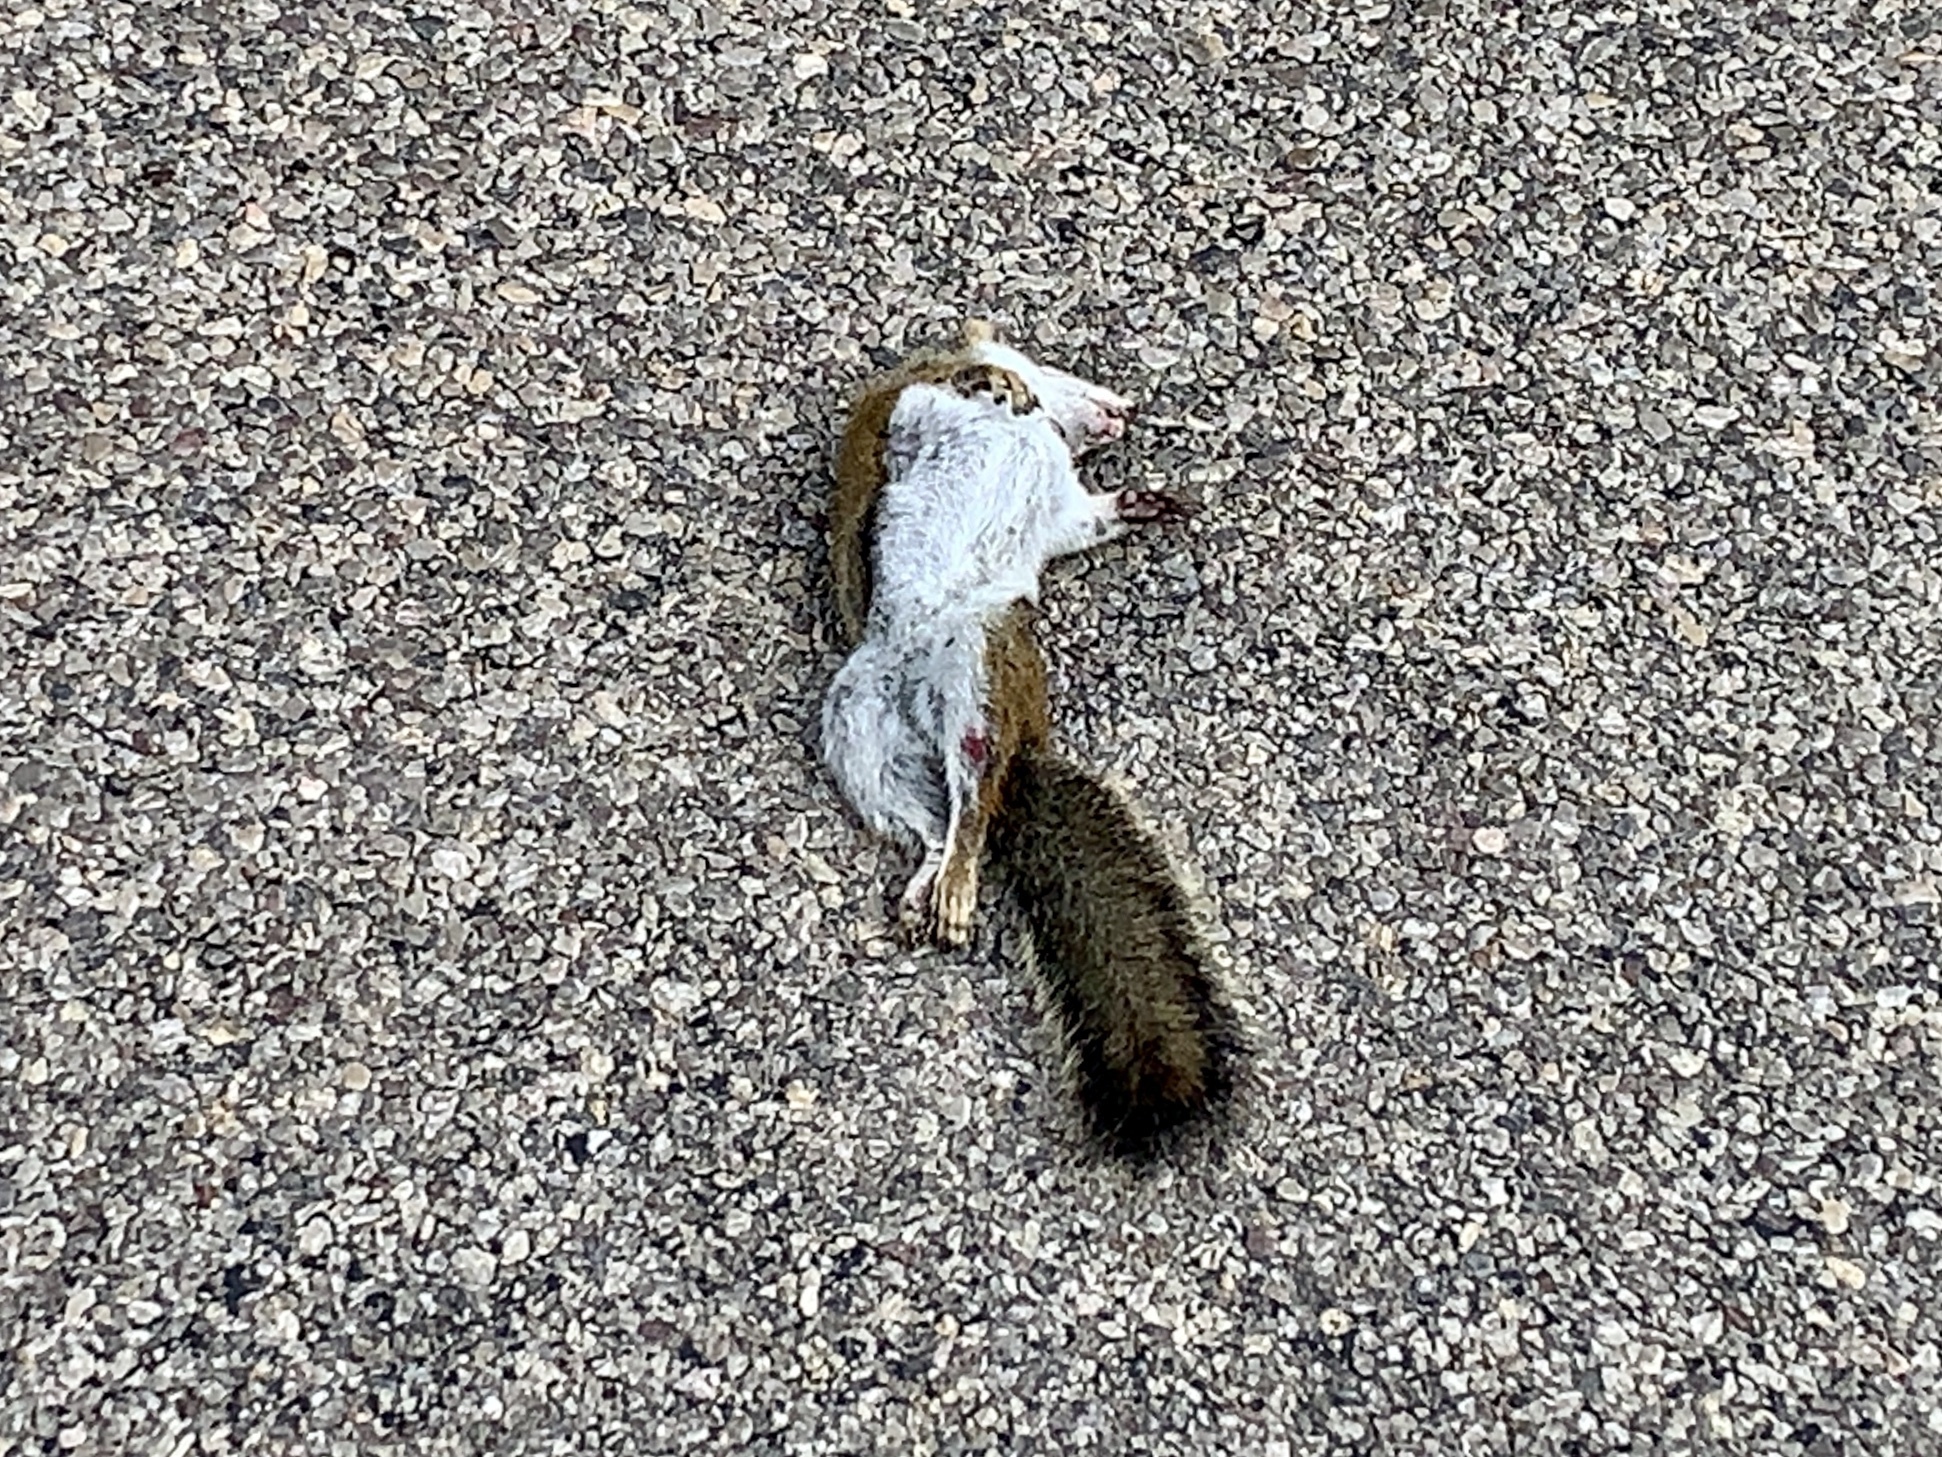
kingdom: Animalia
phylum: Chordata
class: Mammalia
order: Rodentia
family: Sciuridae
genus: Tamiasciurus
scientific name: Tamiasciurus hudsonicus
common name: Red squirrel
